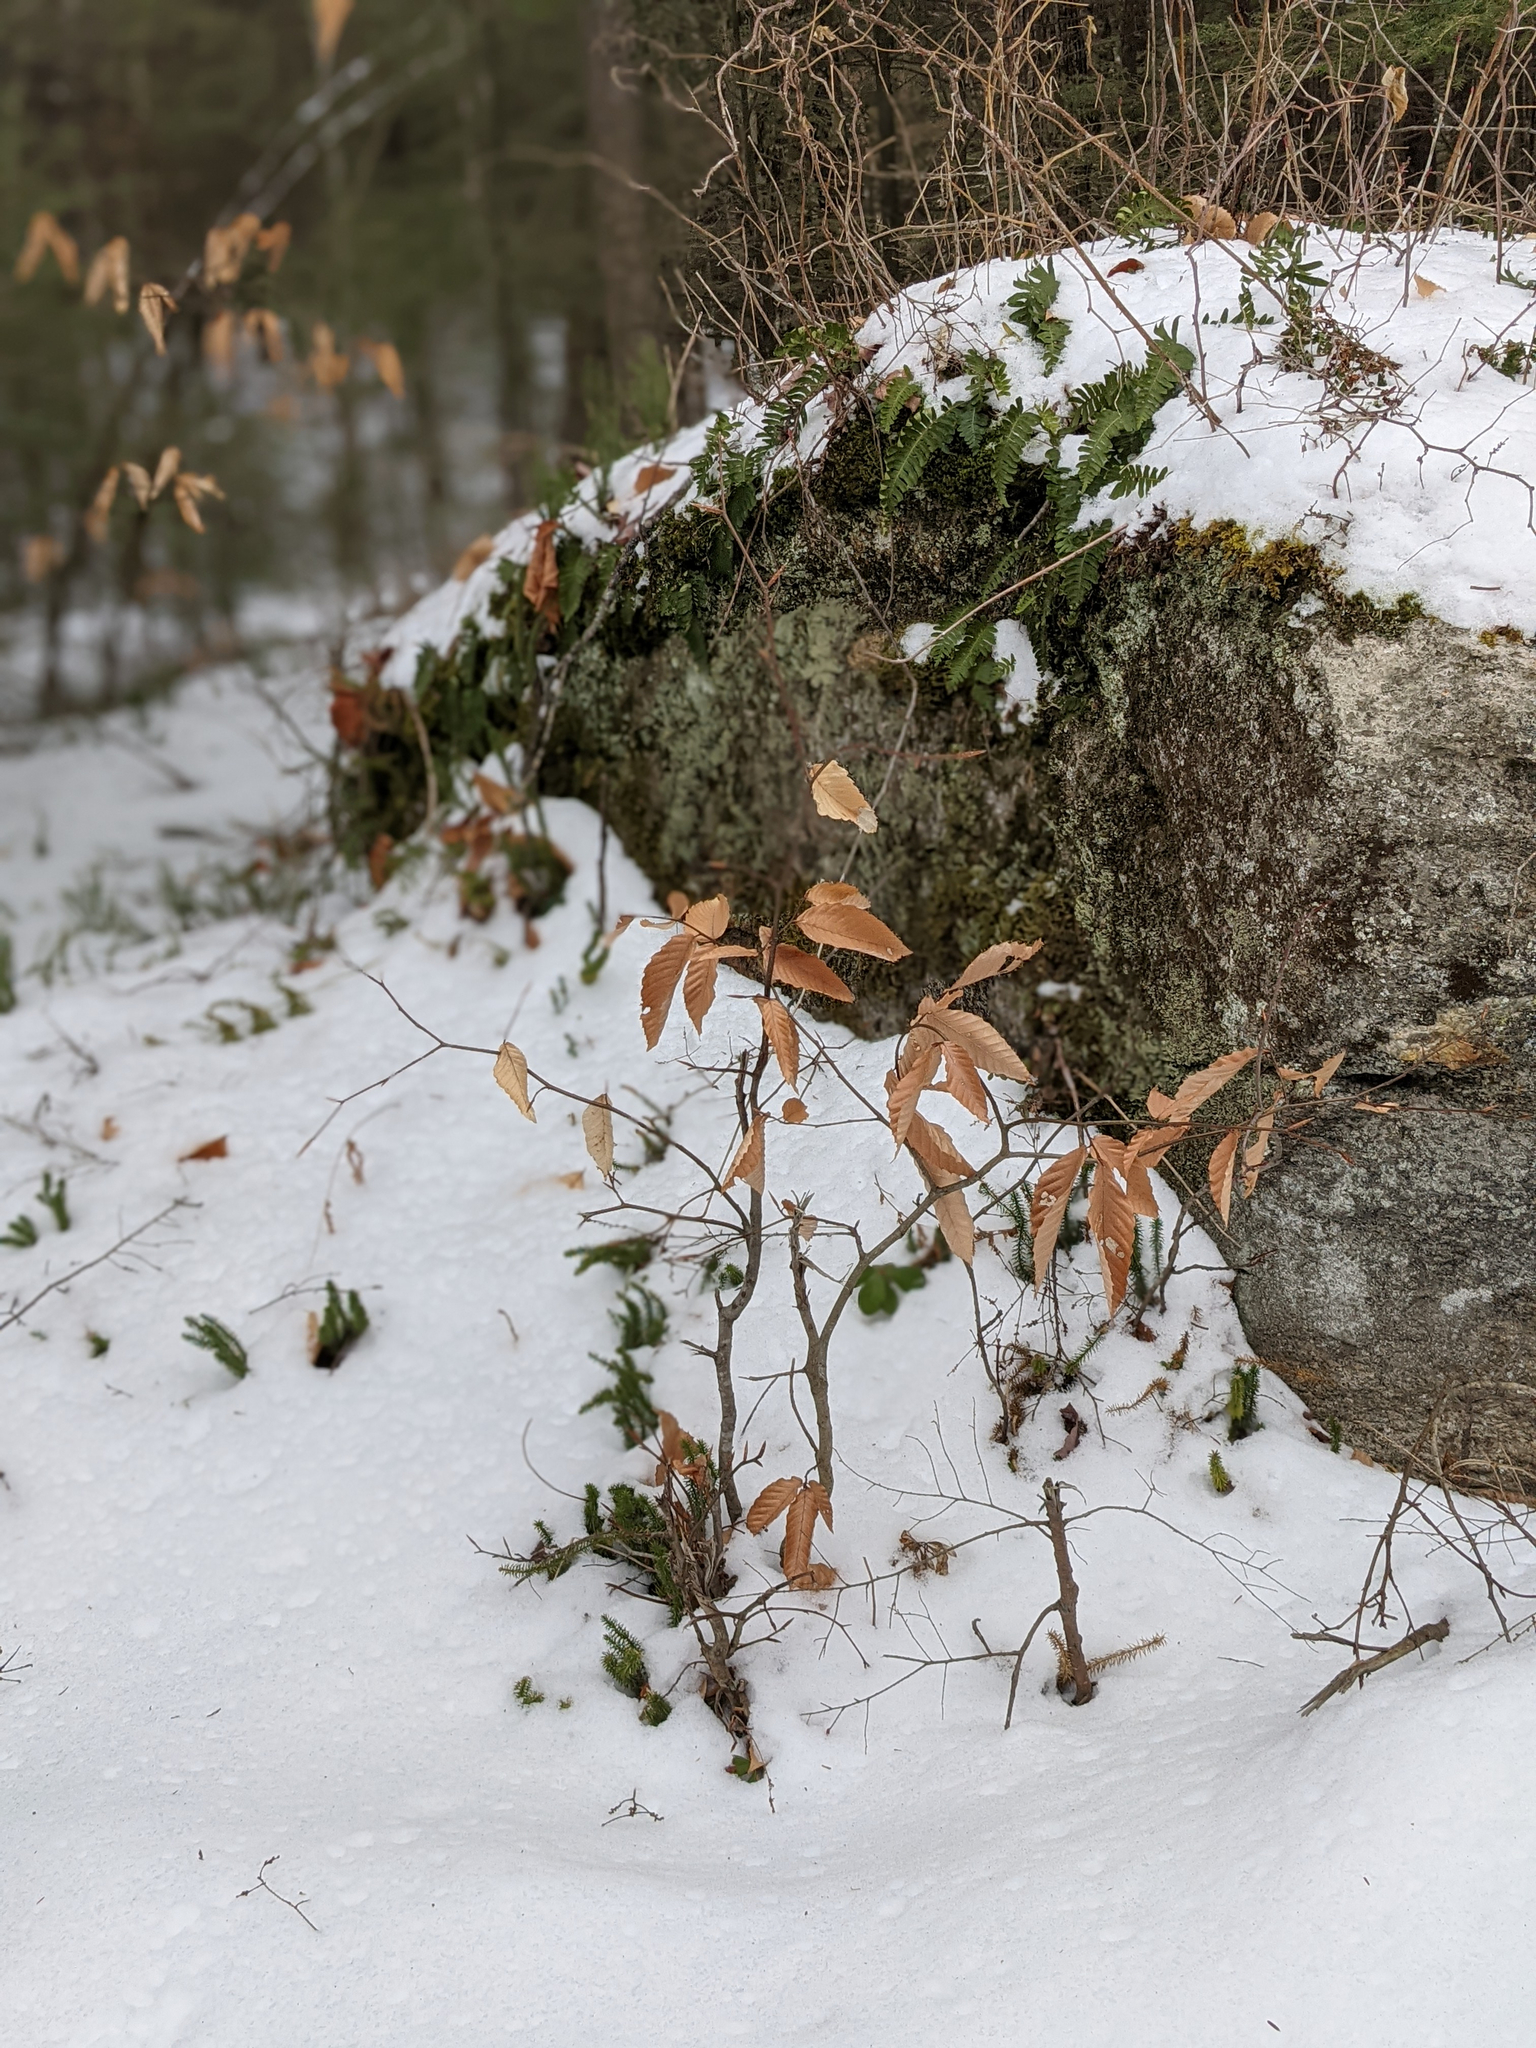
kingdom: Plantae
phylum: Tracheophyta
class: Magnoliopsida
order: Fagales
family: Fagaceae
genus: Fagus
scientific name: Fagus grandifolia
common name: American beech
